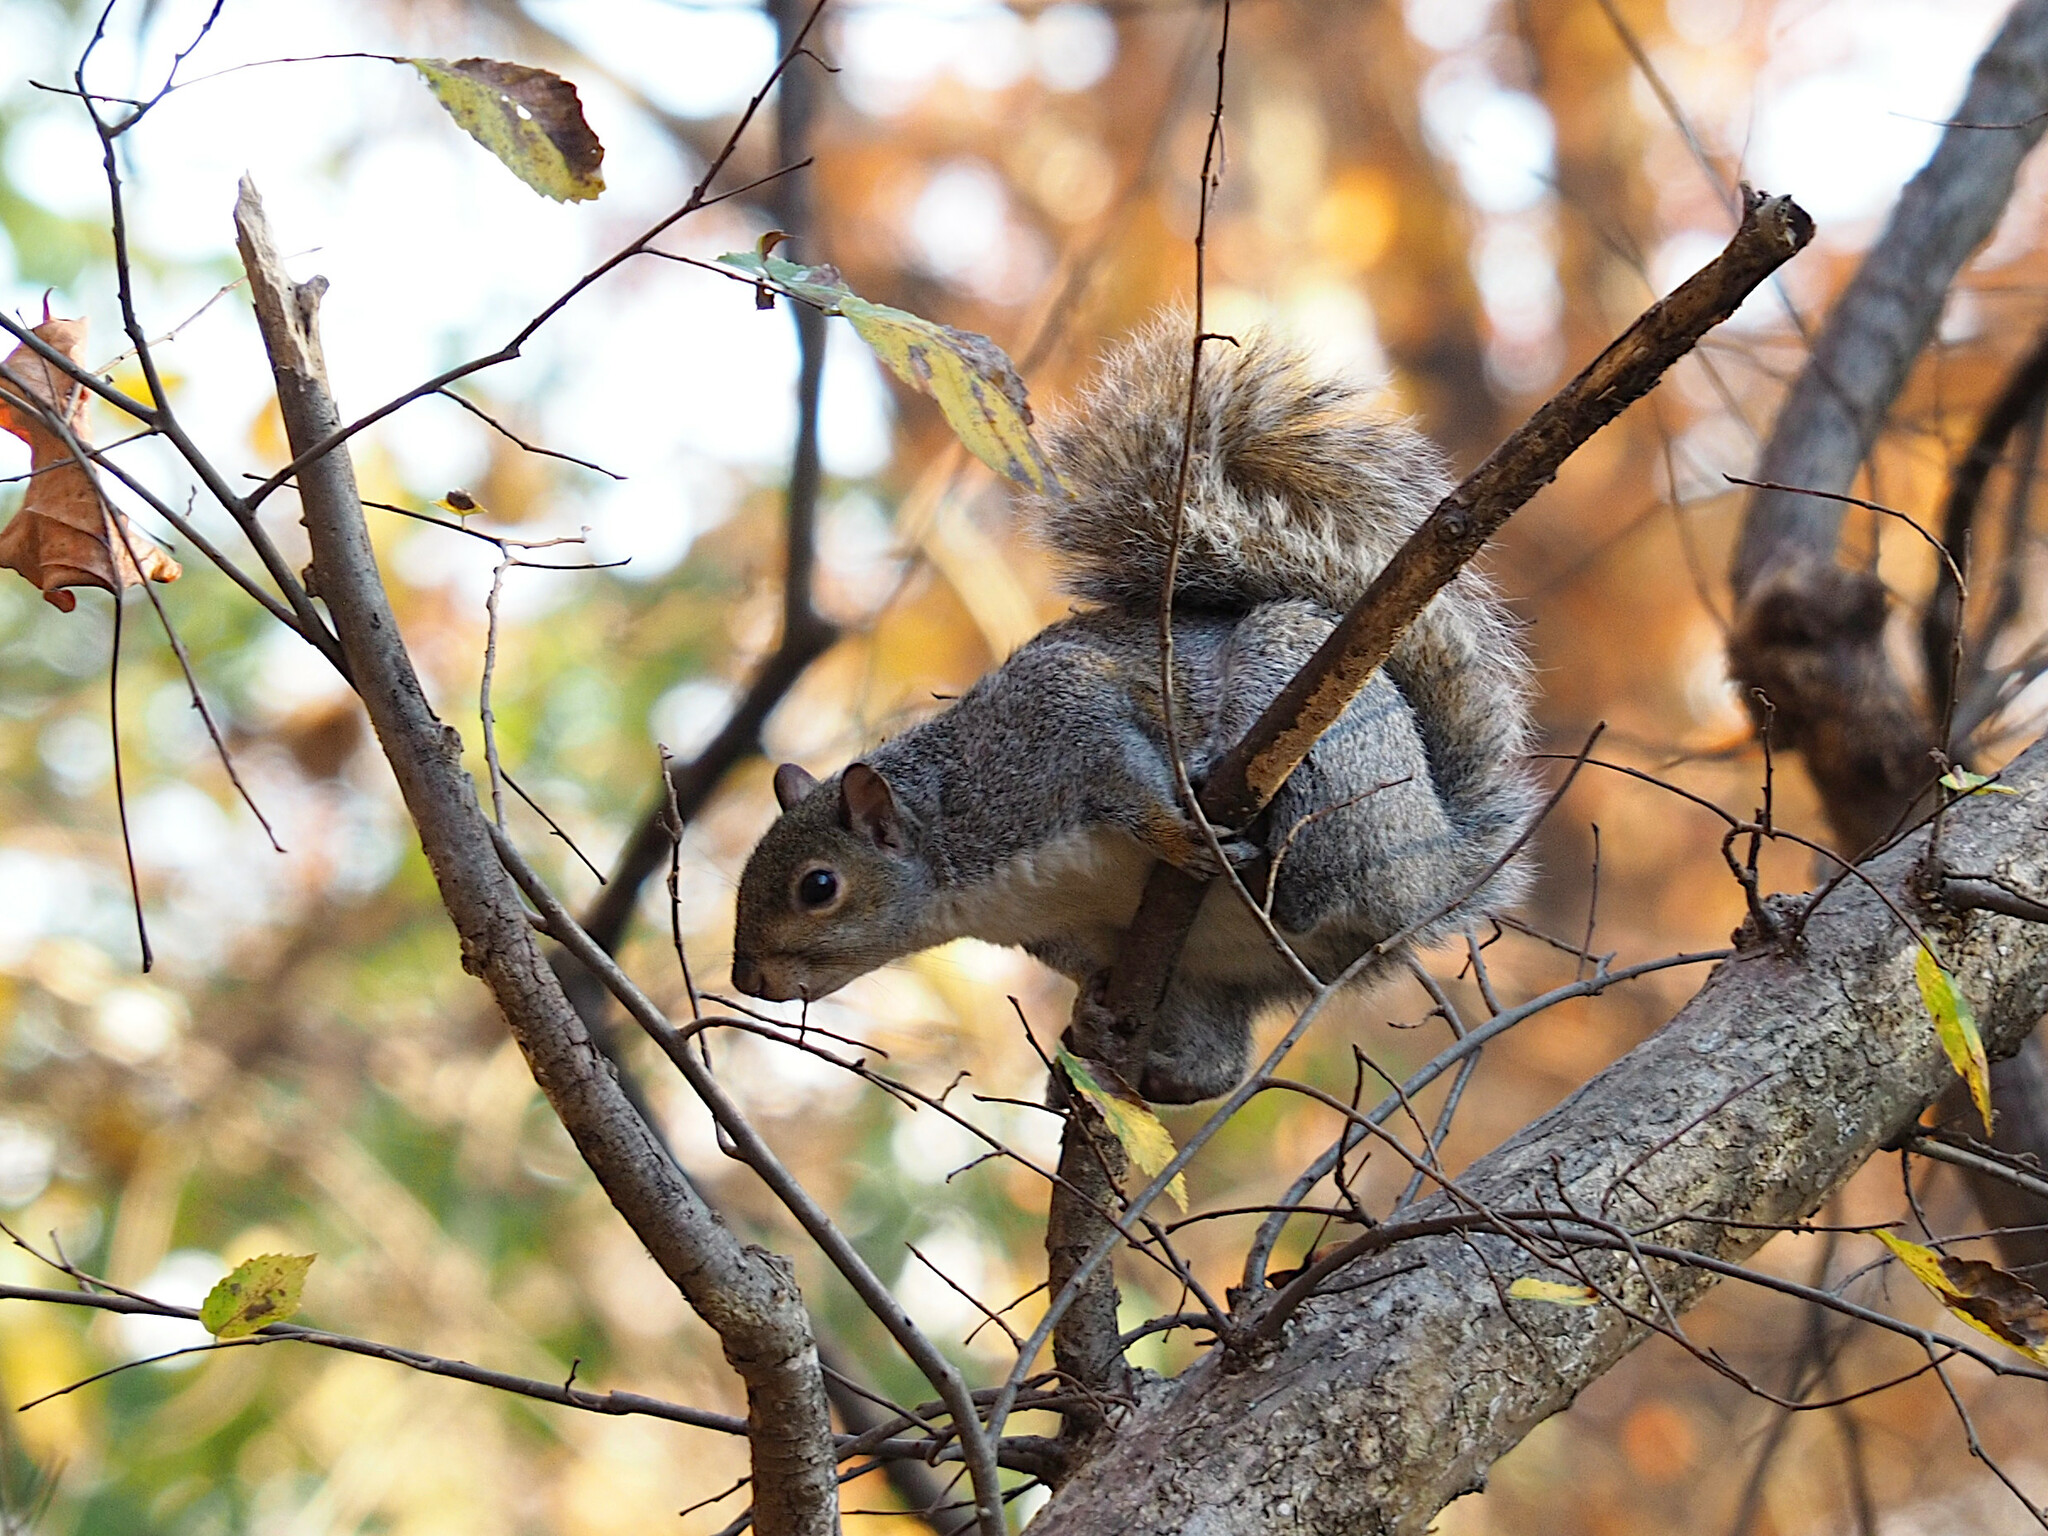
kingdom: Animalia
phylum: Chordata
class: Mammalia
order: Rodentia
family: Sciuridae
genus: Sciurus
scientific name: Sciurus carolinensis
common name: Eastern gray squirrel
